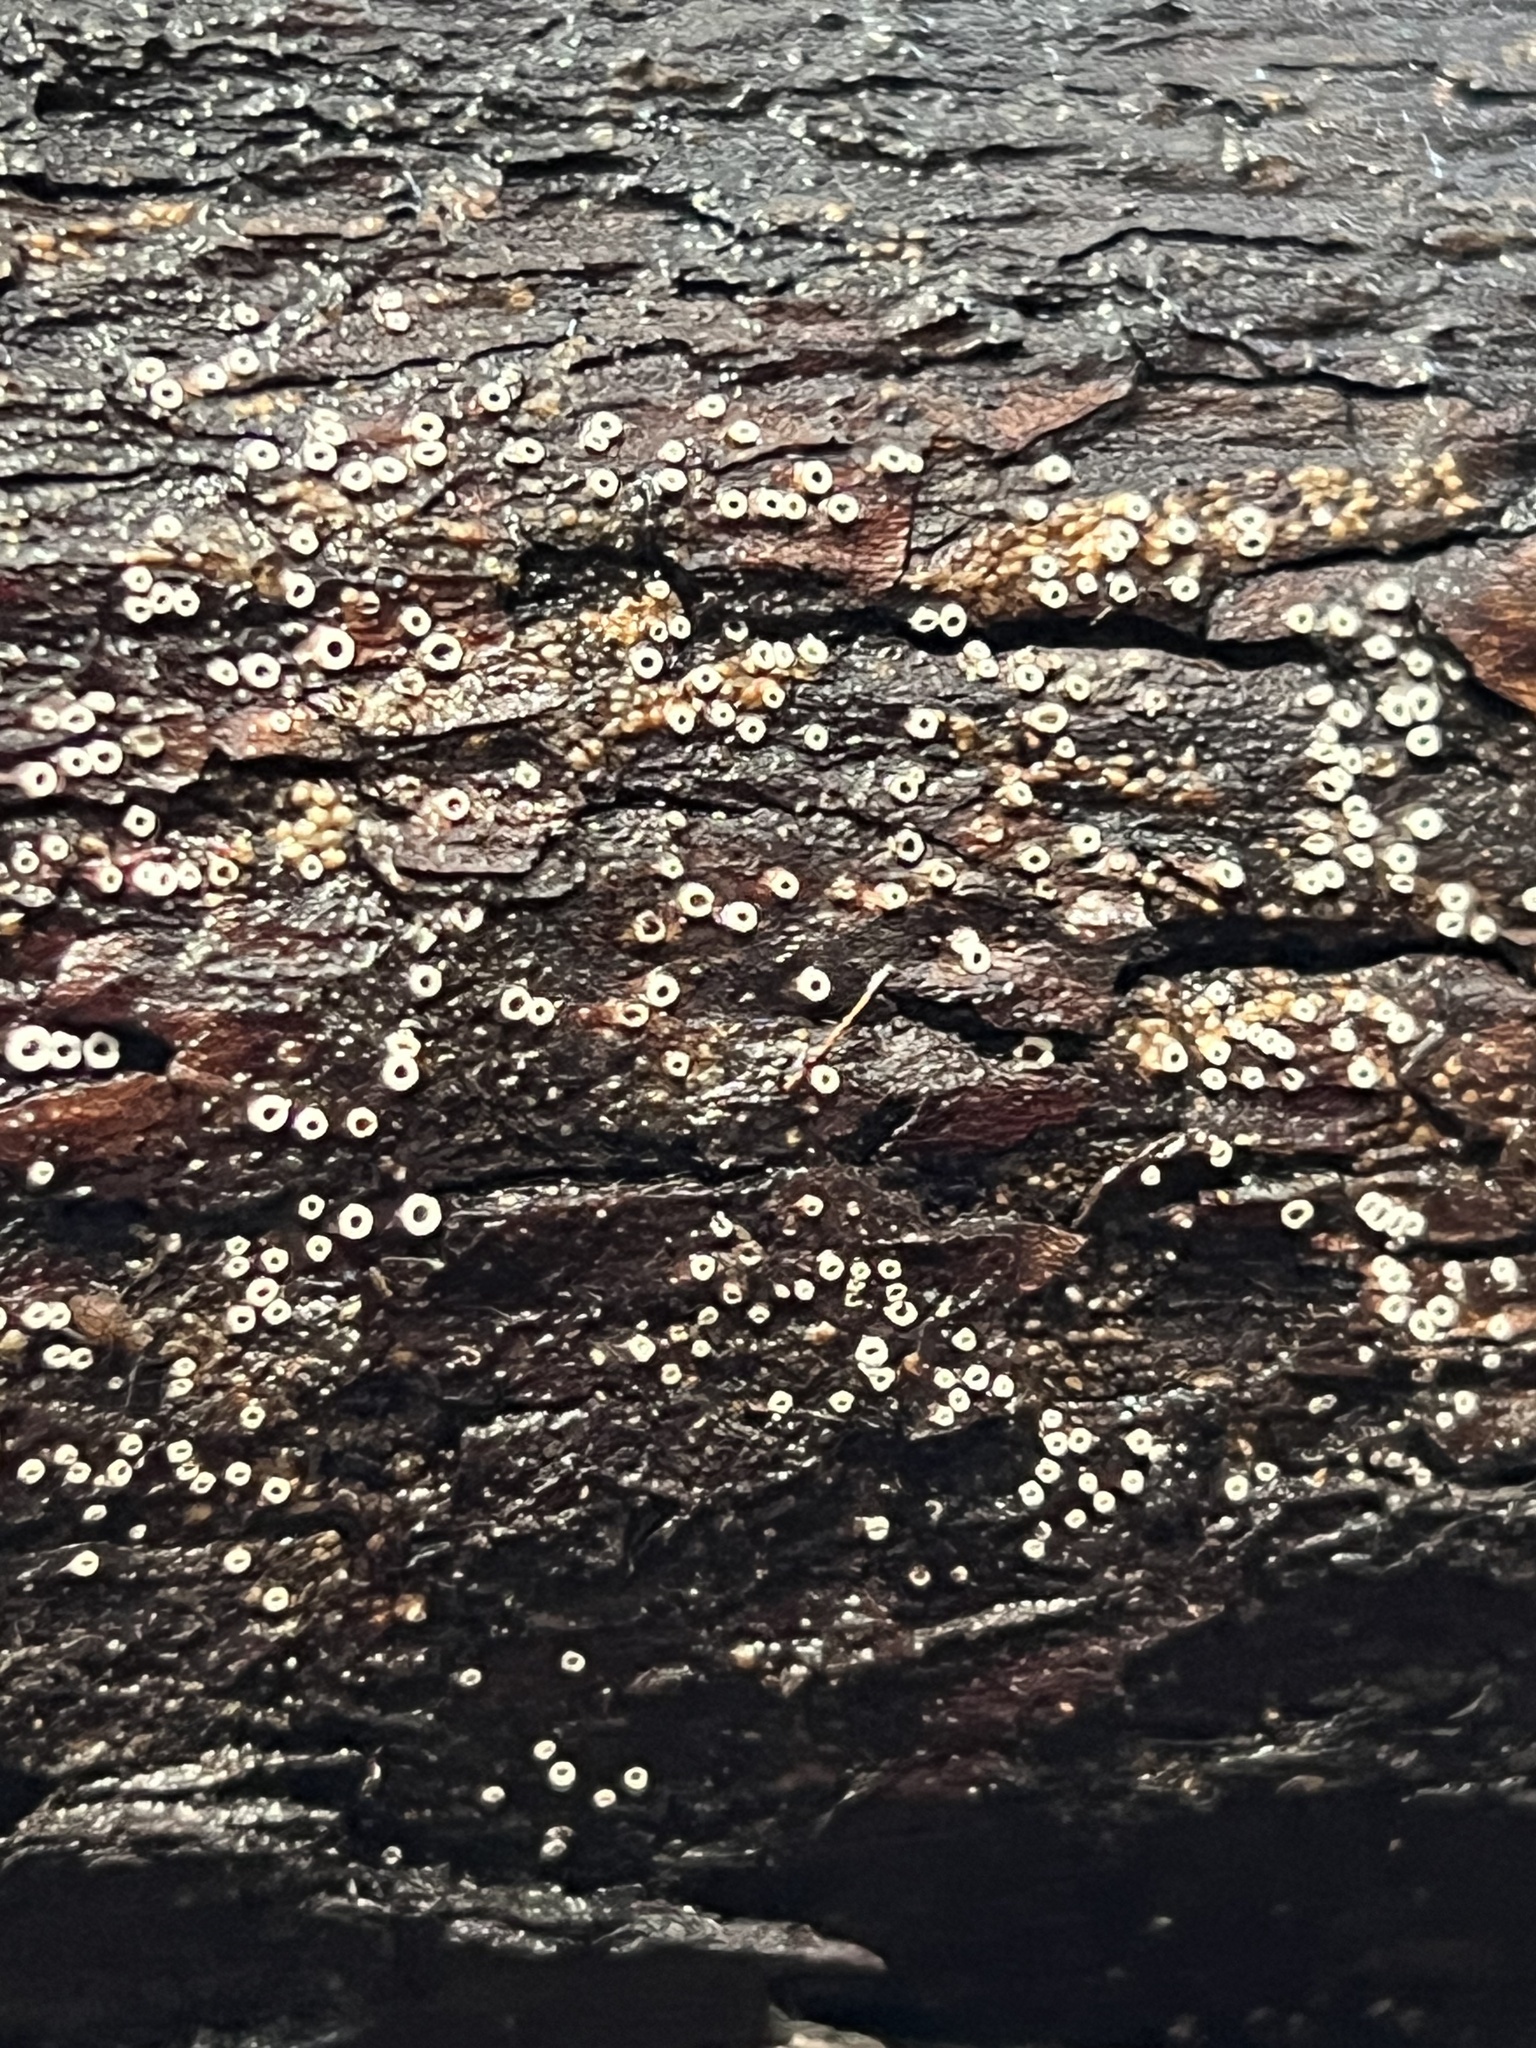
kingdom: Fungi
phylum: Ascomycota
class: Lecanoromycetes
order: Ostropales
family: Stictidaceae
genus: Stictis
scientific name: Stictis radiata
